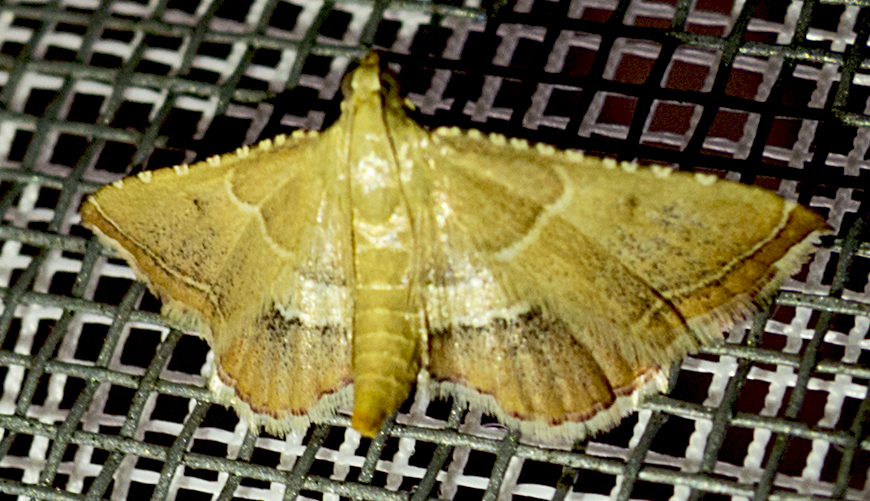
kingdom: Animalia
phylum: Arthropoda
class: Insecta
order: Lepidoptera
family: Pyralidae
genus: Endotricha
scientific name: Endotricha flammealis
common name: Rosy tabby
